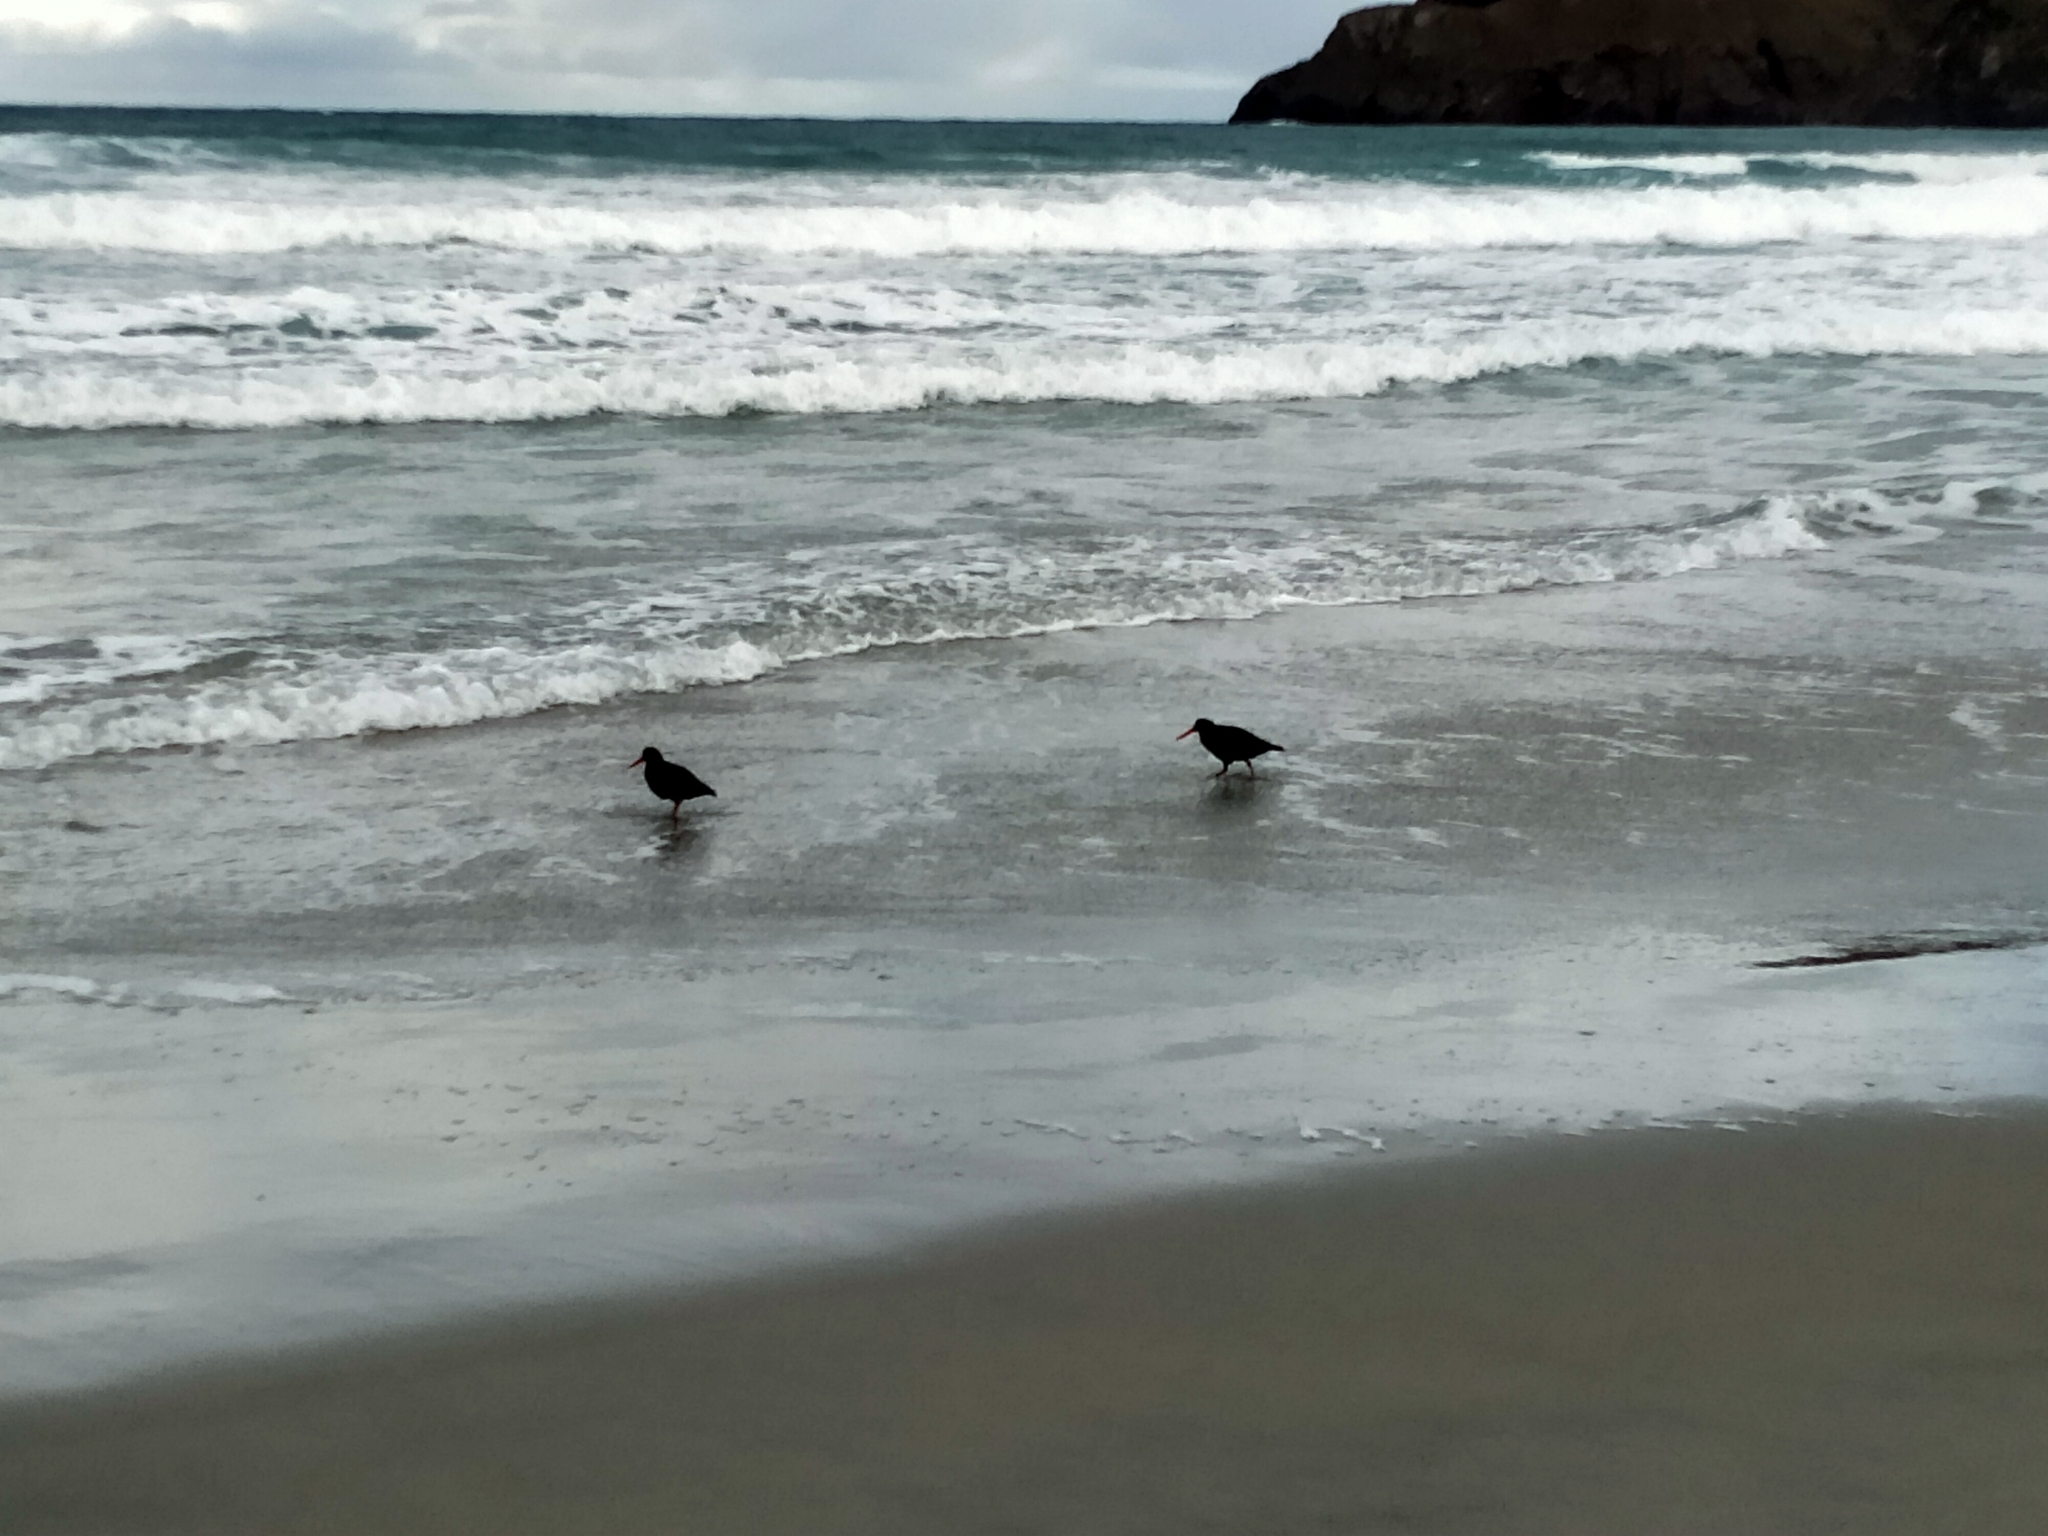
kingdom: Animalia
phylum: Chordata
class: Aves
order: Charadriiformes
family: Haematopodidae
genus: Haematopus
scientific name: Haematopus unicolor
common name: Variable oystercatcher
